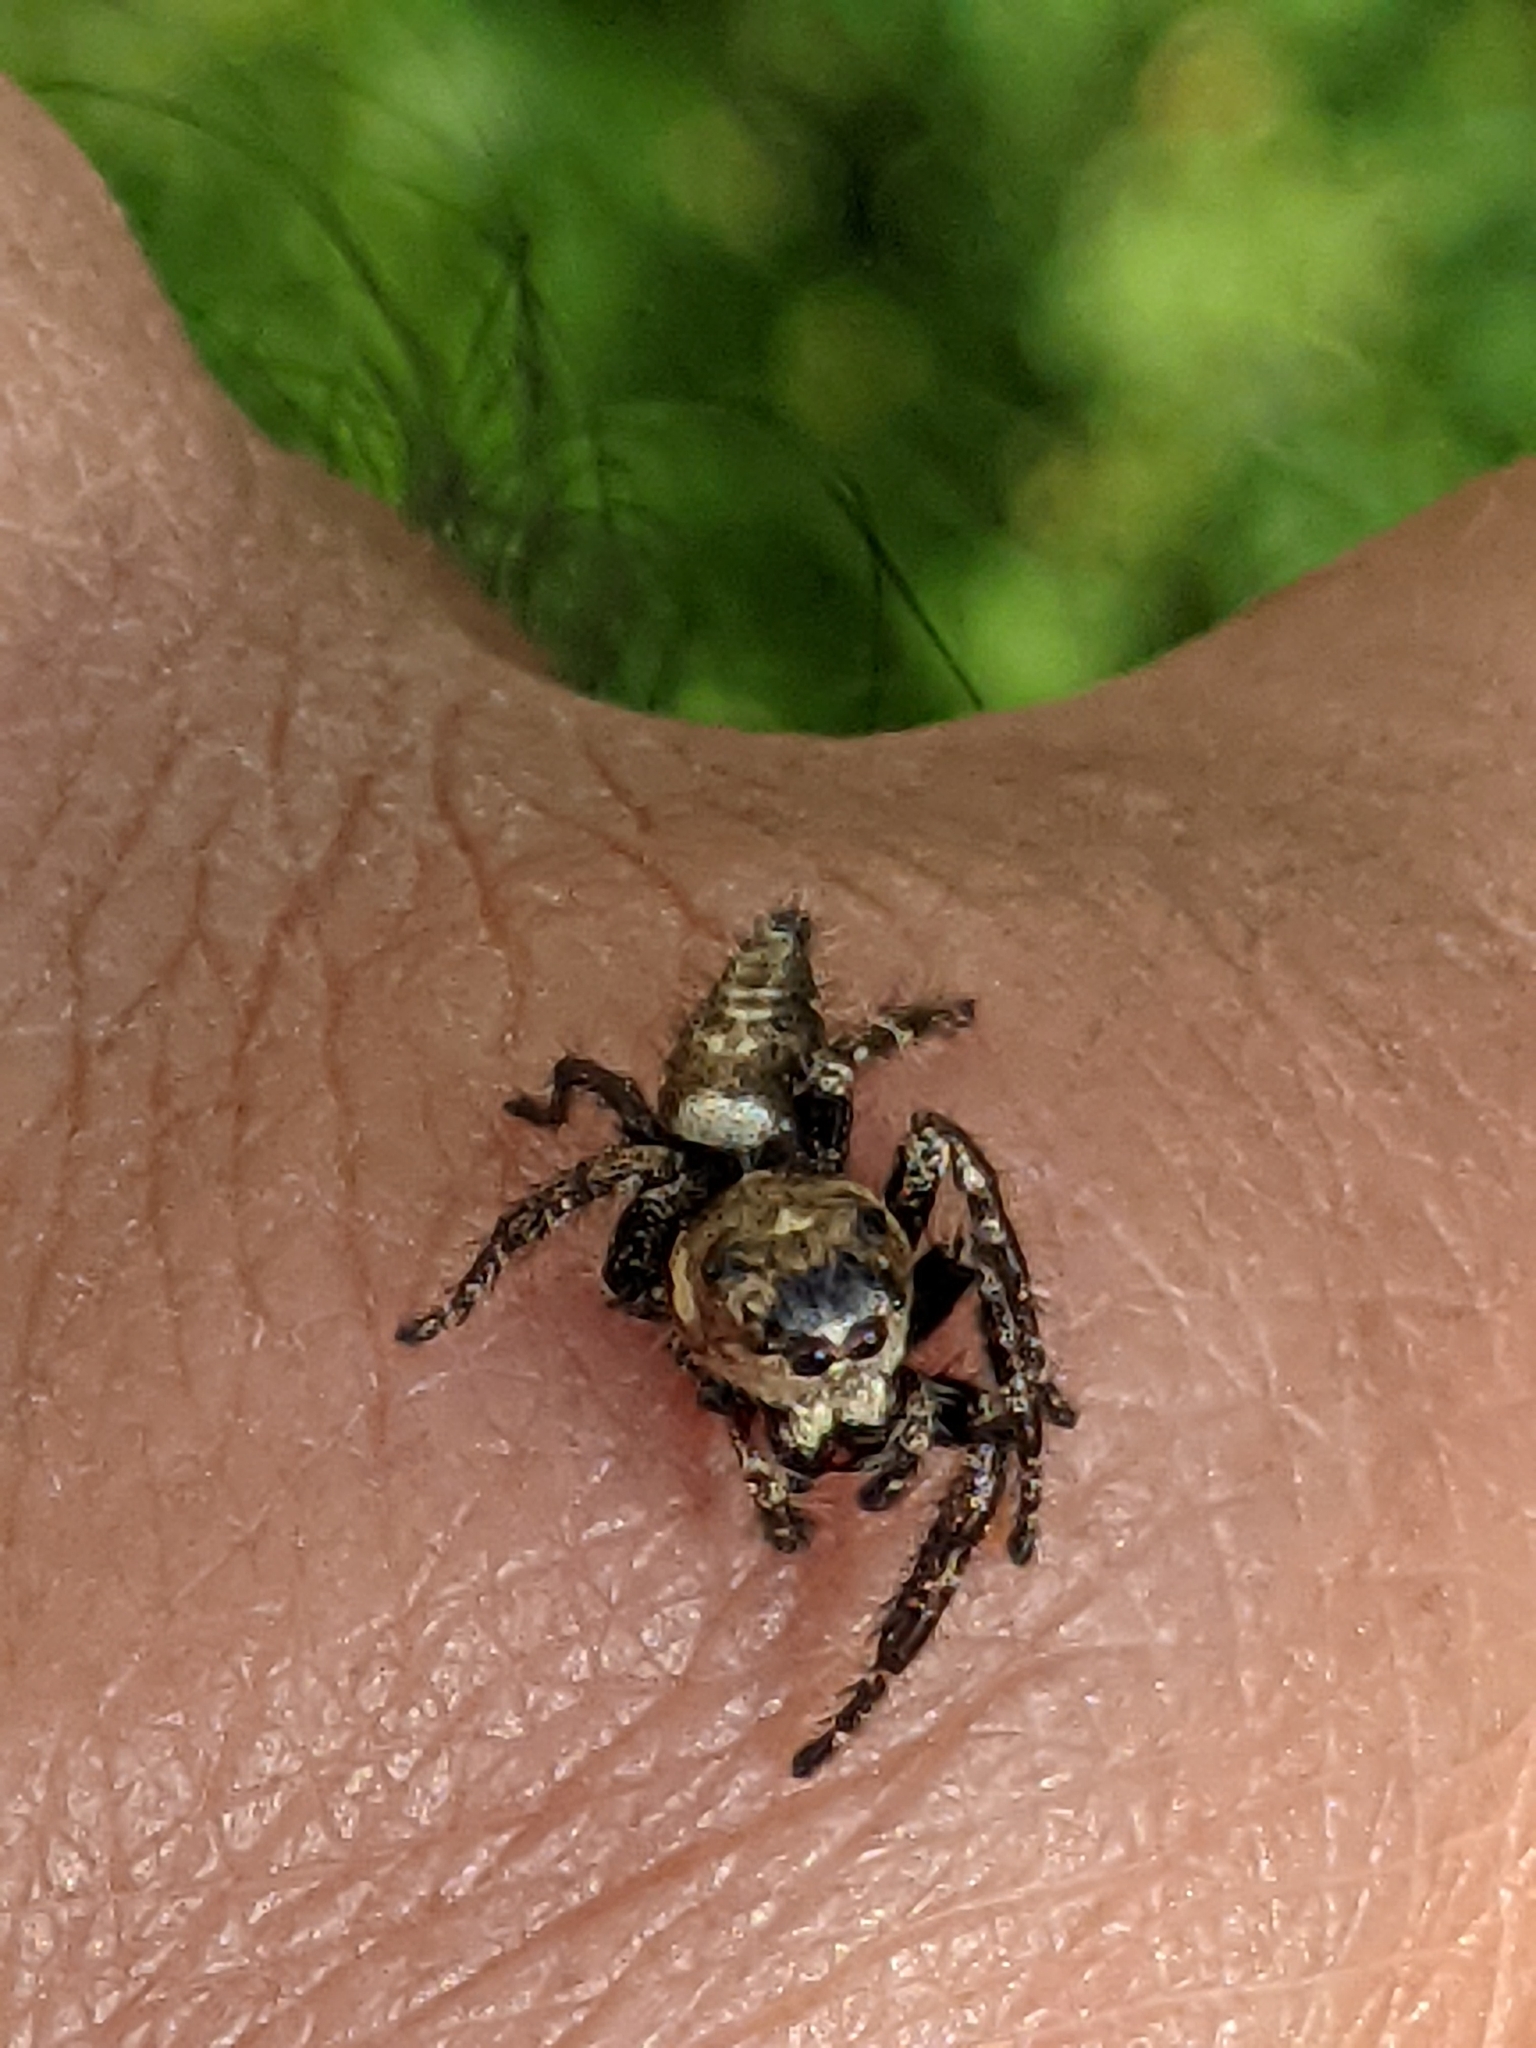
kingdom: Animalia
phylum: Arthropoda
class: Arachnida
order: Araneae
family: Salticidae
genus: Hyllus
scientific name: Hyllus semicupreus
